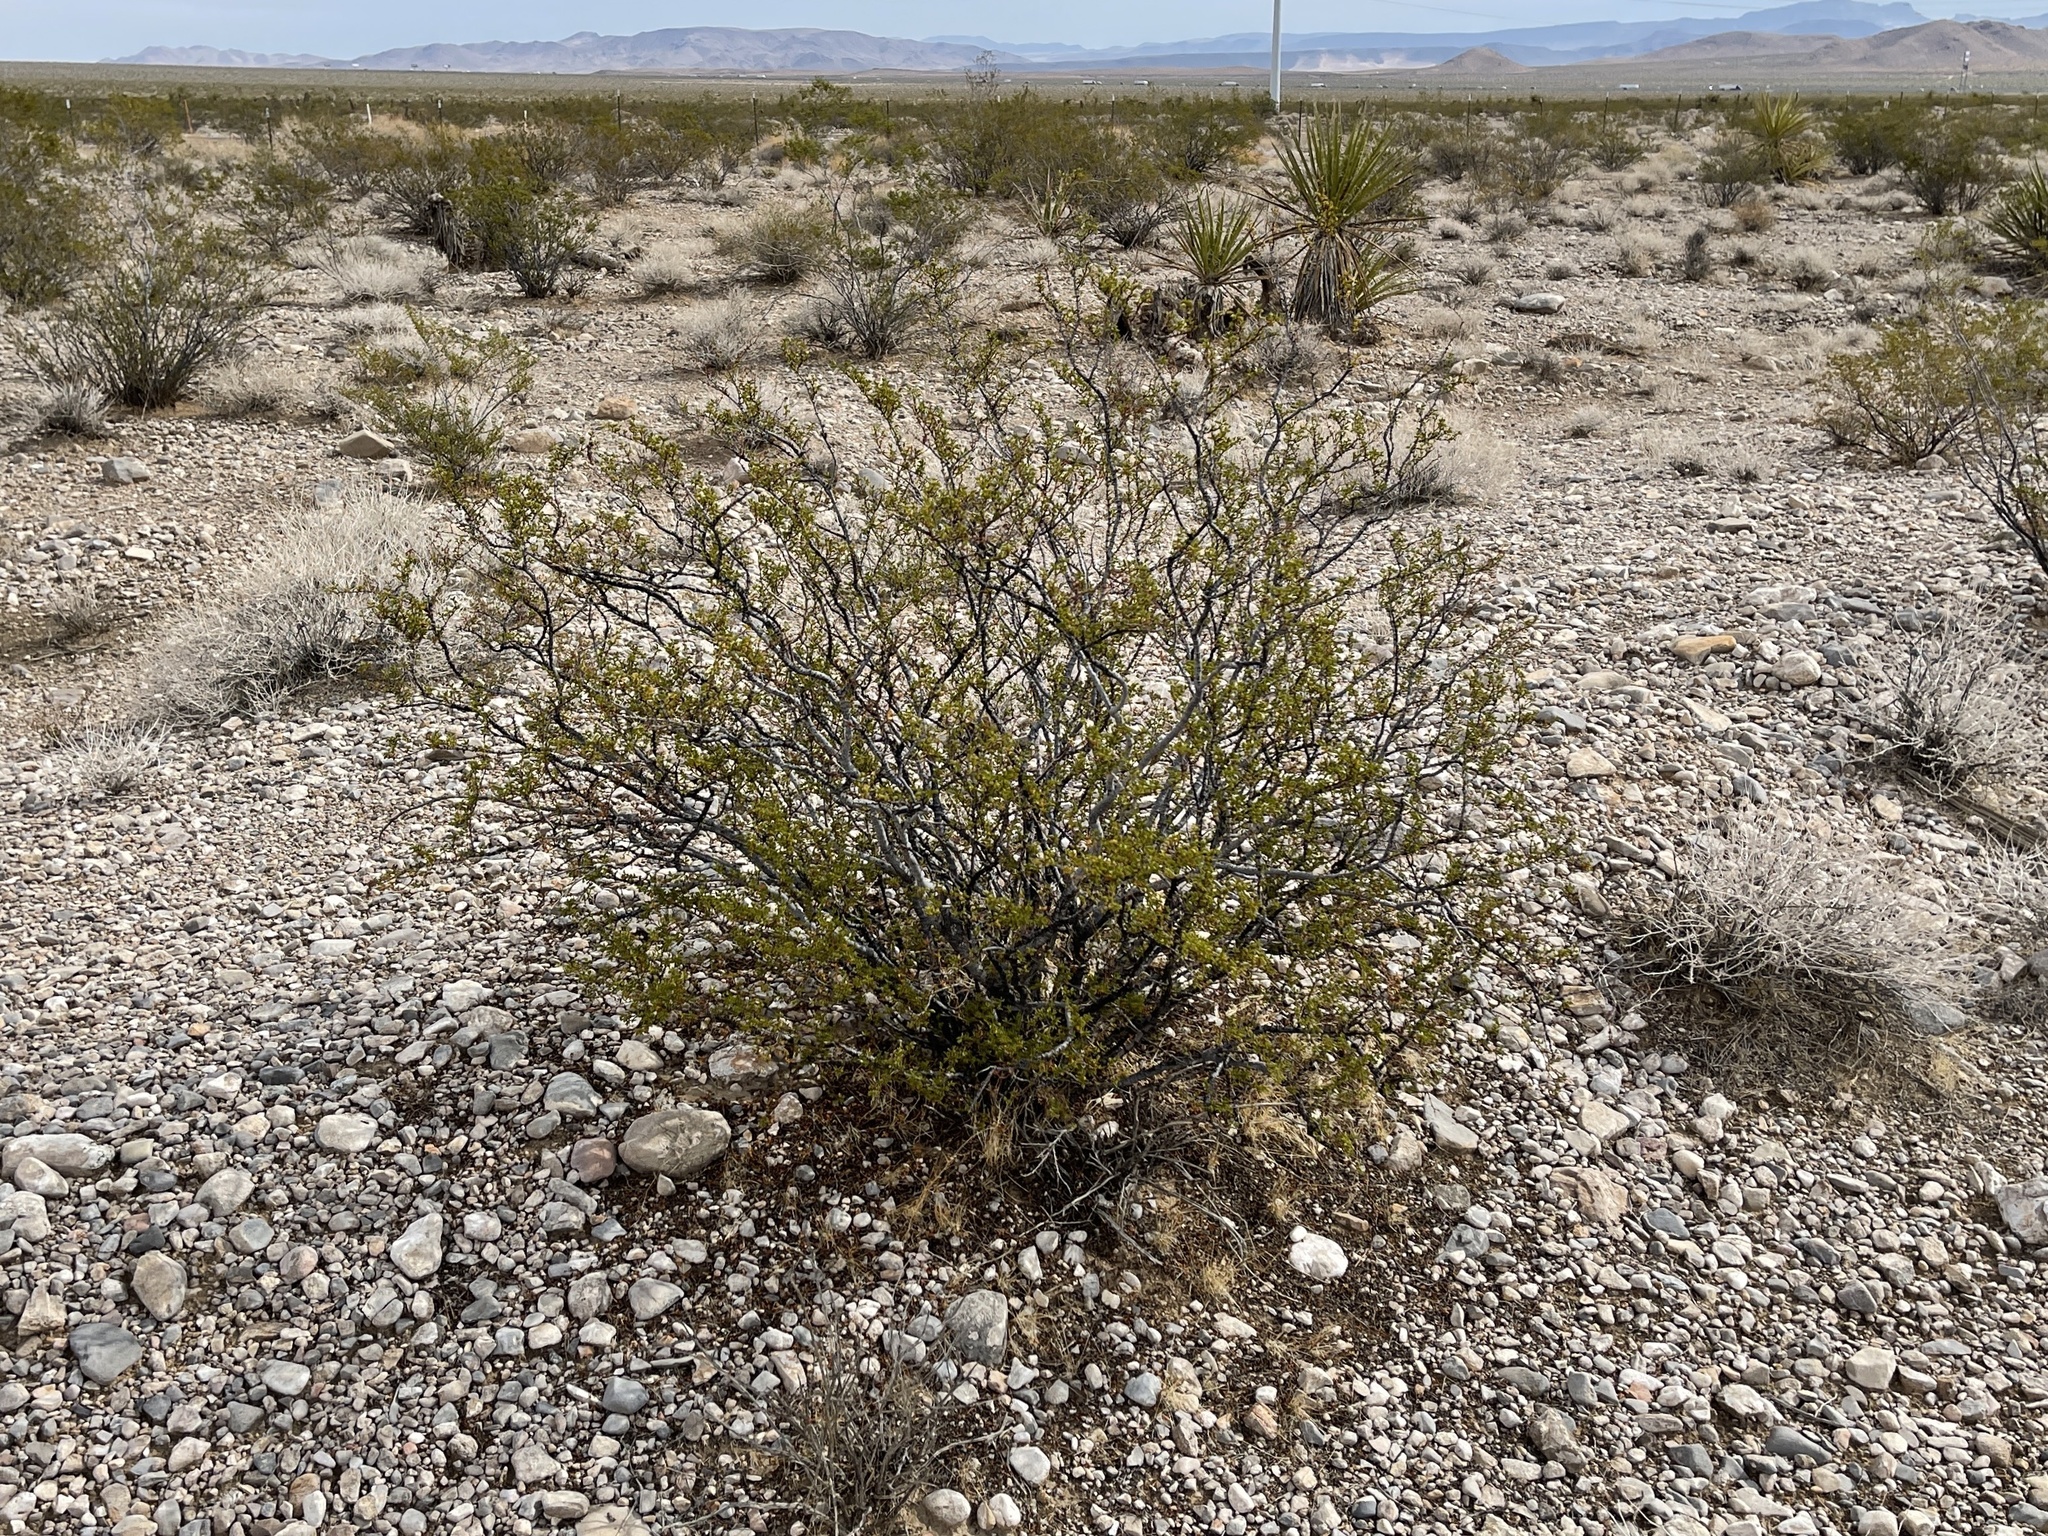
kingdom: Plantae
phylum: Tracheophyta
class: Magnoliopsida
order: Zygophyllales
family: Zygophyllaceae
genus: Larrea
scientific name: Larrea tridentata
